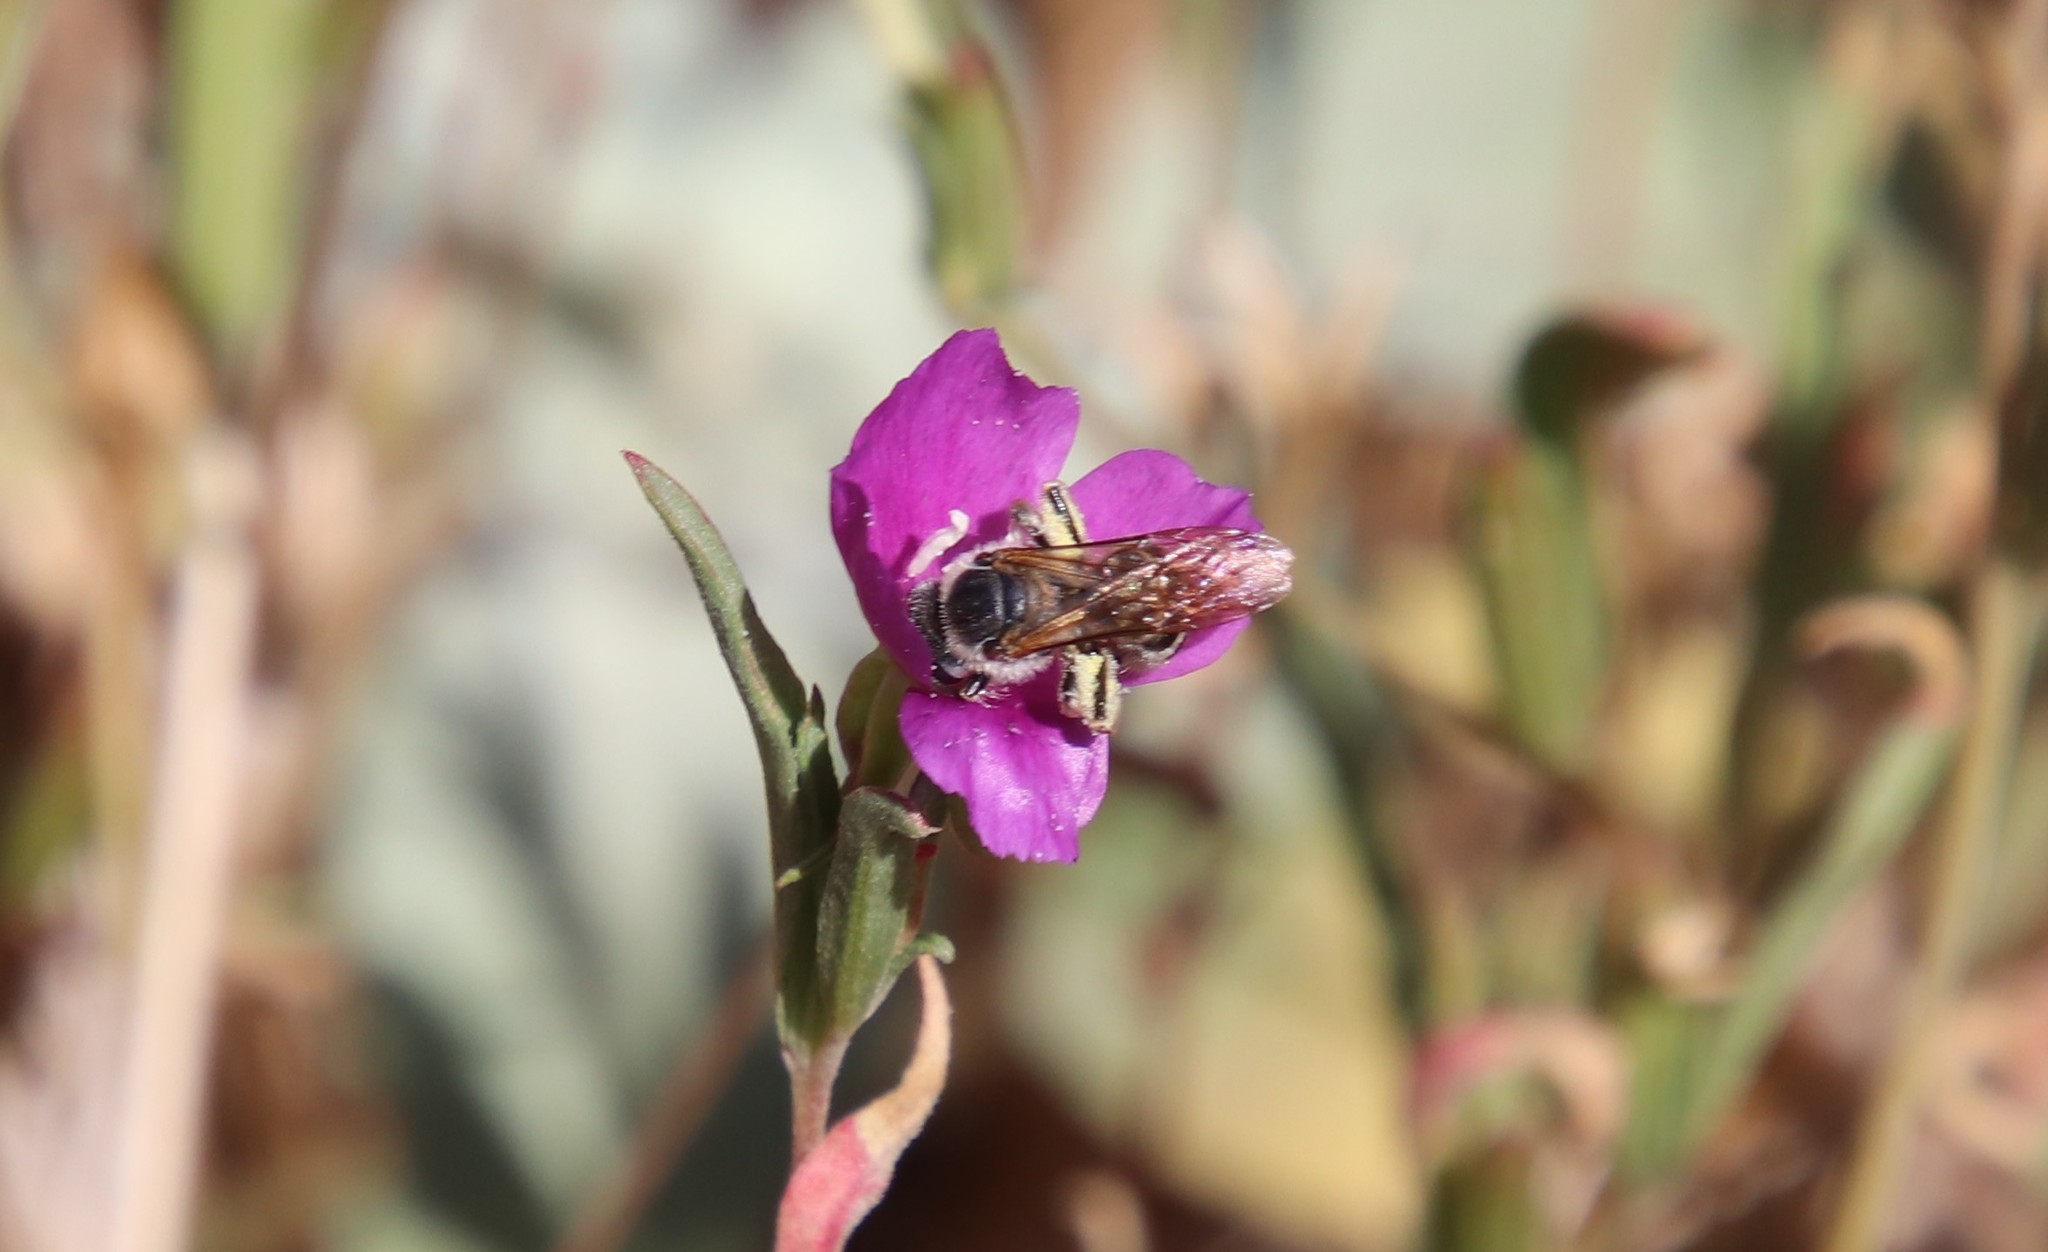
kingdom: Animalia
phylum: Arthropoda
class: Insecta
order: Hymenoptera
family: Halictidae
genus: Halictus
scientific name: Halictus farinosus
